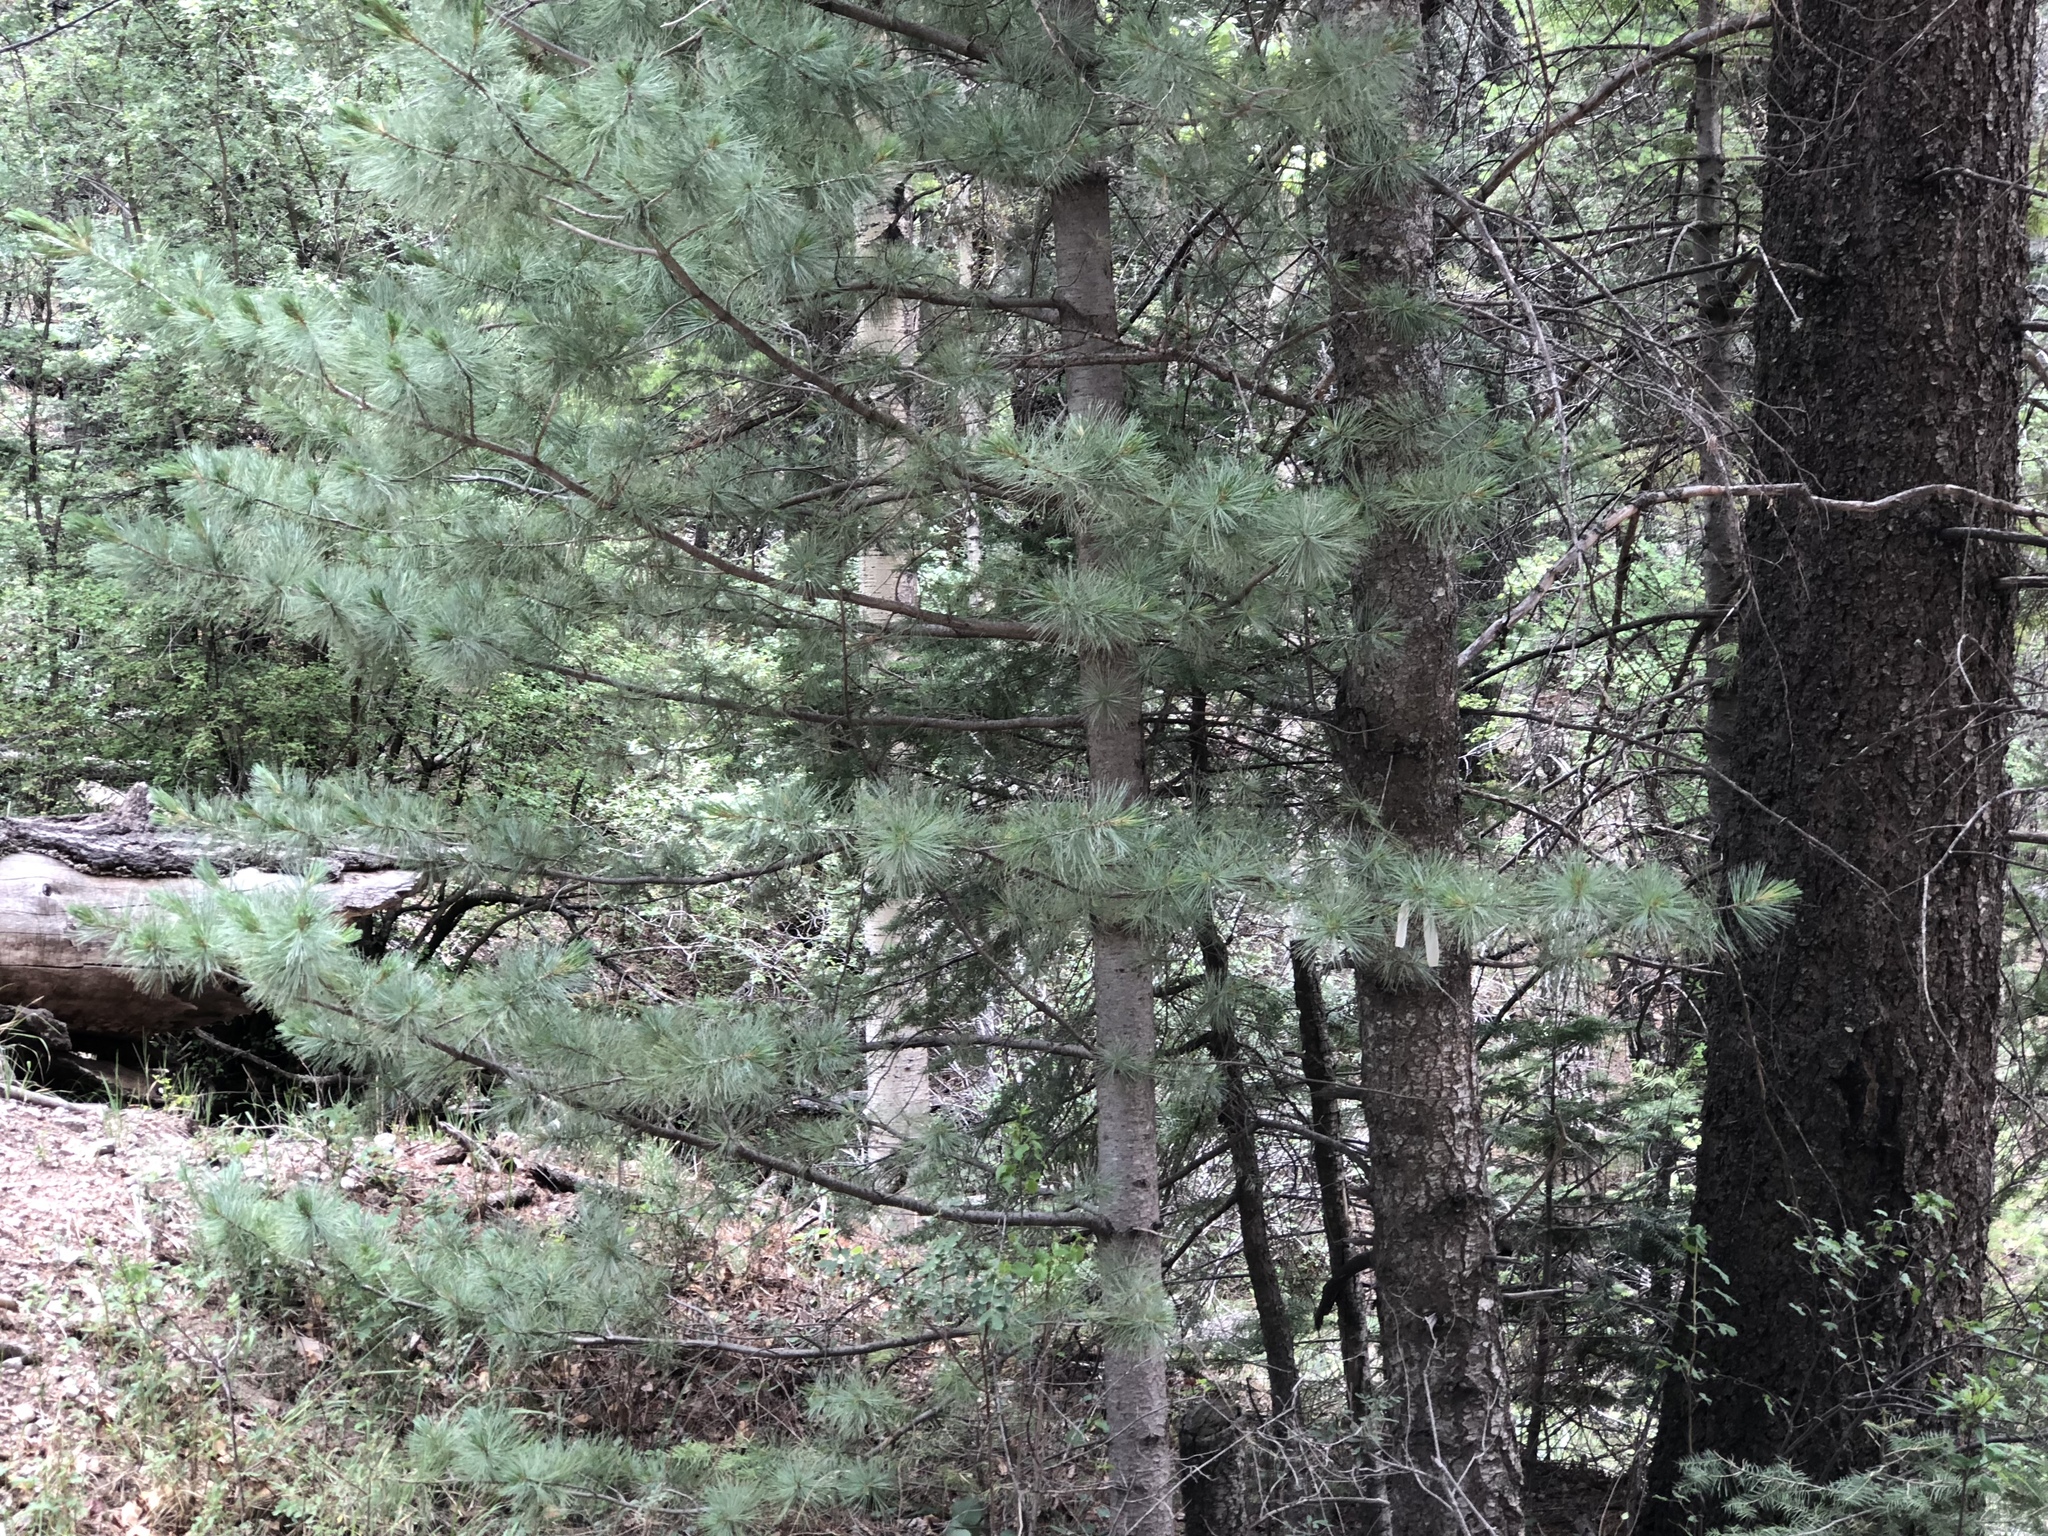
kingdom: Plantae
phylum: Tracheophyta
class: Pinopsida
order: Pinales
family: Pinaceae
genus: Pinus
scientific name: Pinus strobiformis
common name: Southwestern white pine
